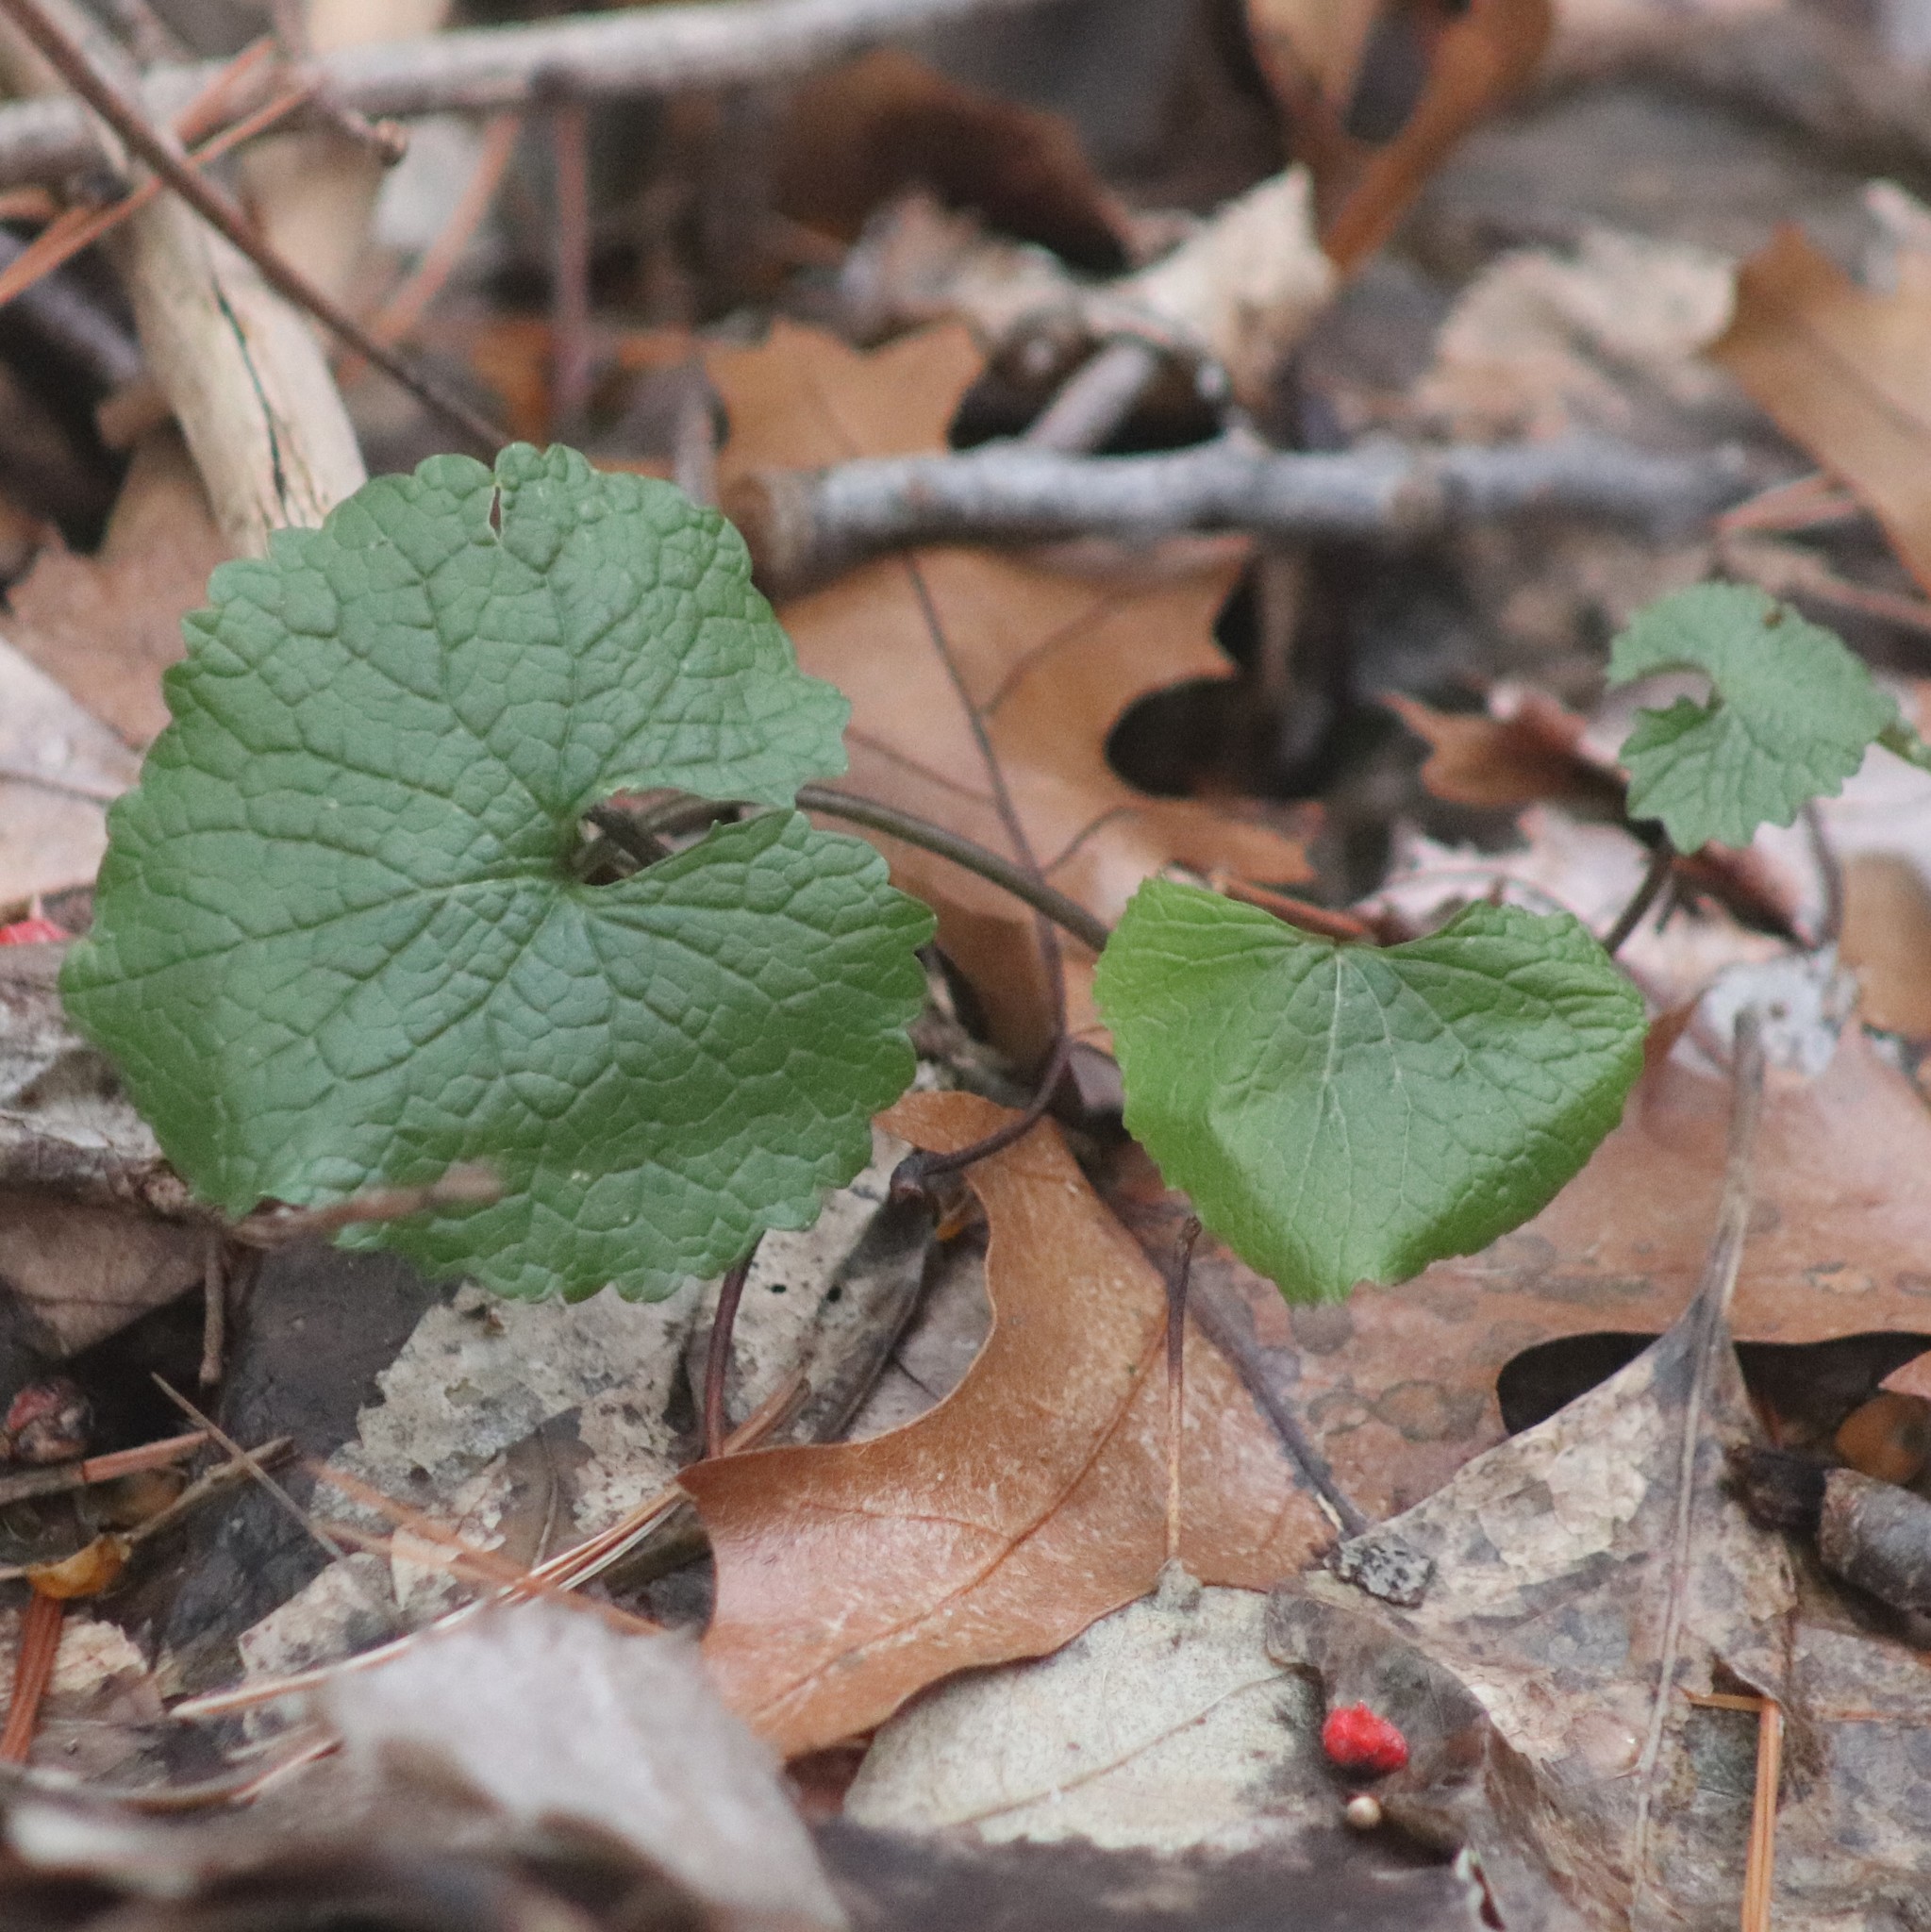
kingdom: Plantae
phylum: Tracheophyta
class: Magnoliopsida
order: Brassicales
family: Brassicaceae
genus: Alliaria
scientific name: Alliaria petiolata
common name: Garlic mustard
